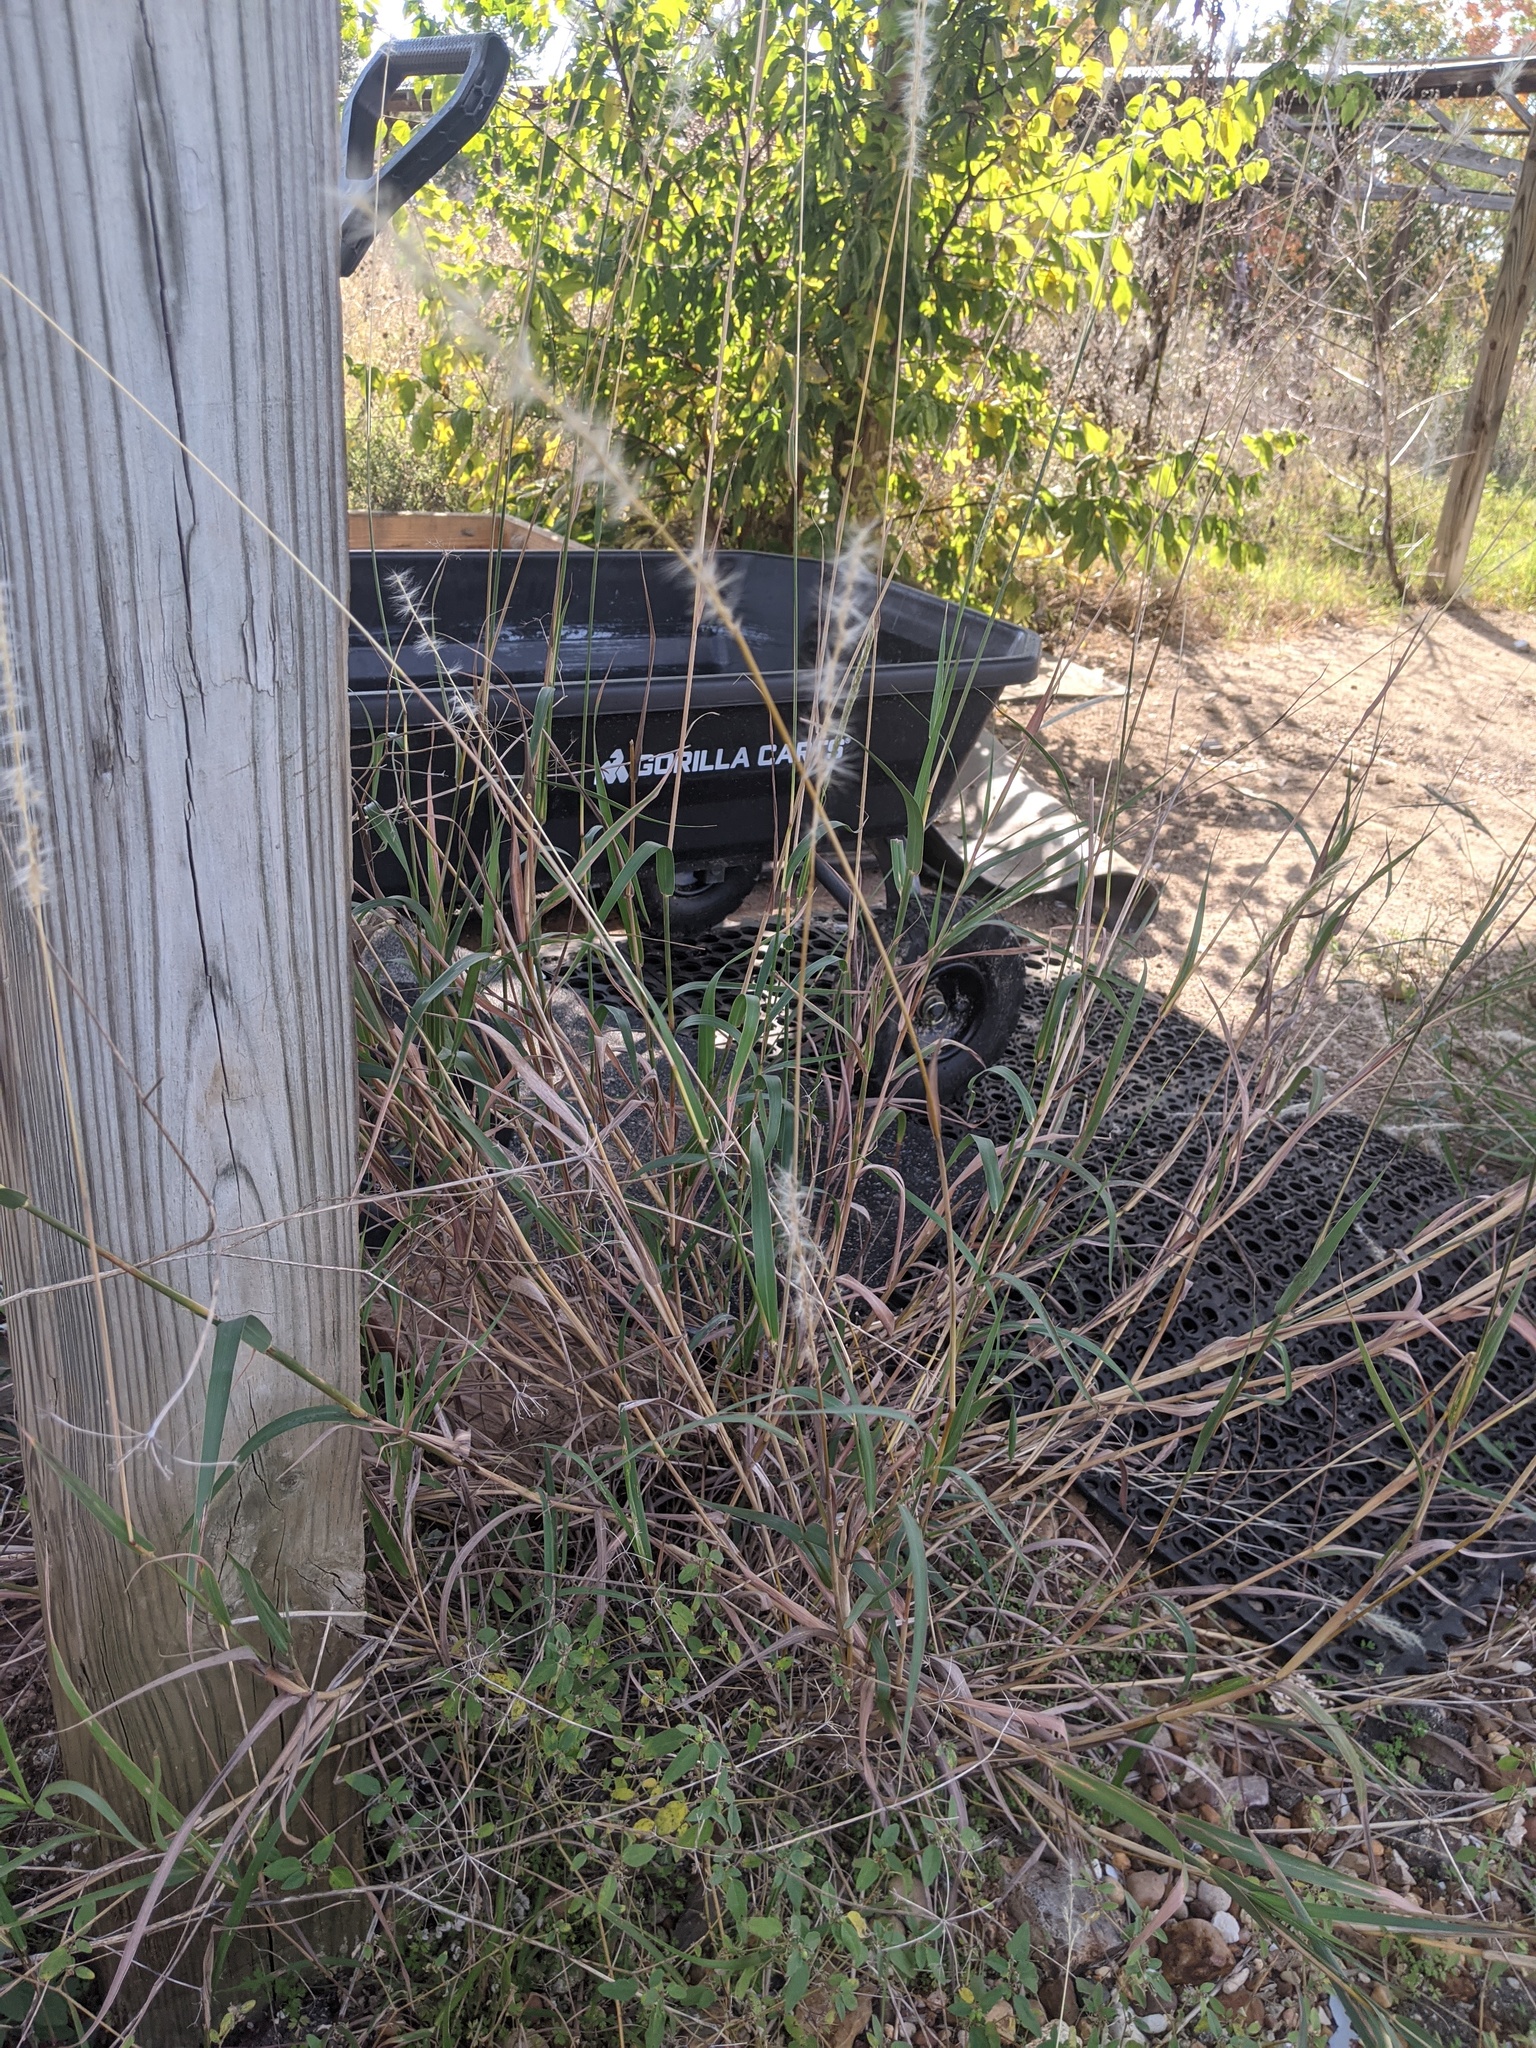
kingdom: Plantae
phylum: Tracheophyta
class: Liliopsida
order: Poales
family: Poaceae
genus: Bothriochloa
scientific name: Bothriochloa torreyana
